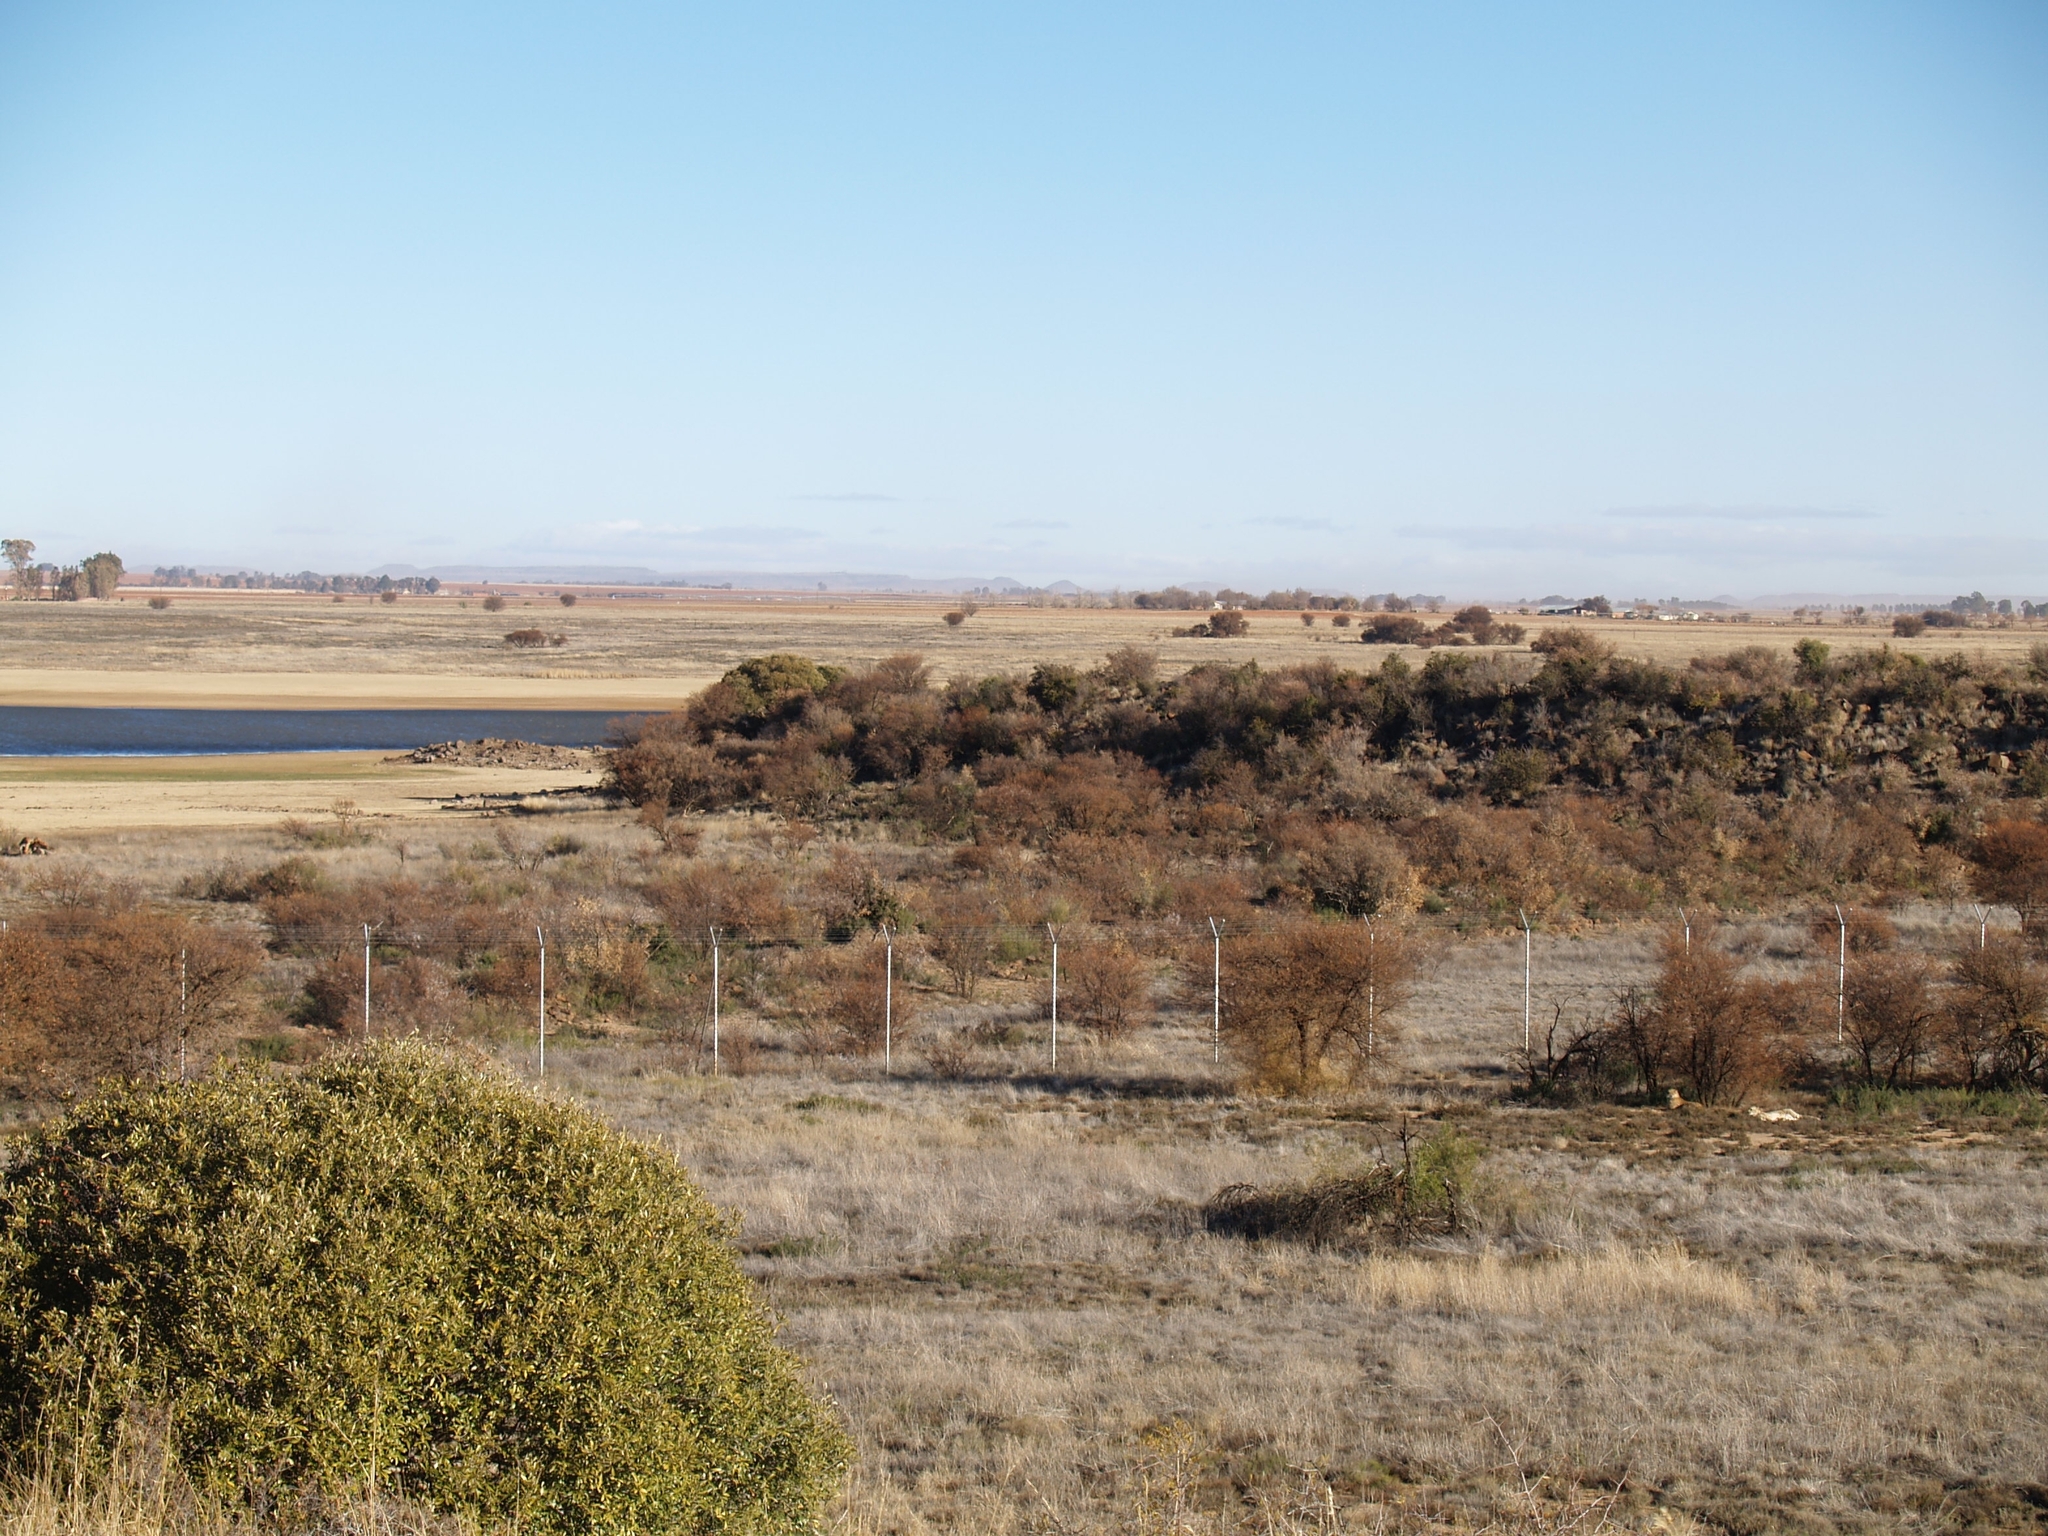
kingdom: Animalia
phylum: Chordata
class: Mammalia
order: Carnivora
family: Felidae
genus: Acinonyx
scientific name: Acinonyx jubatus
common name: Cheetah
